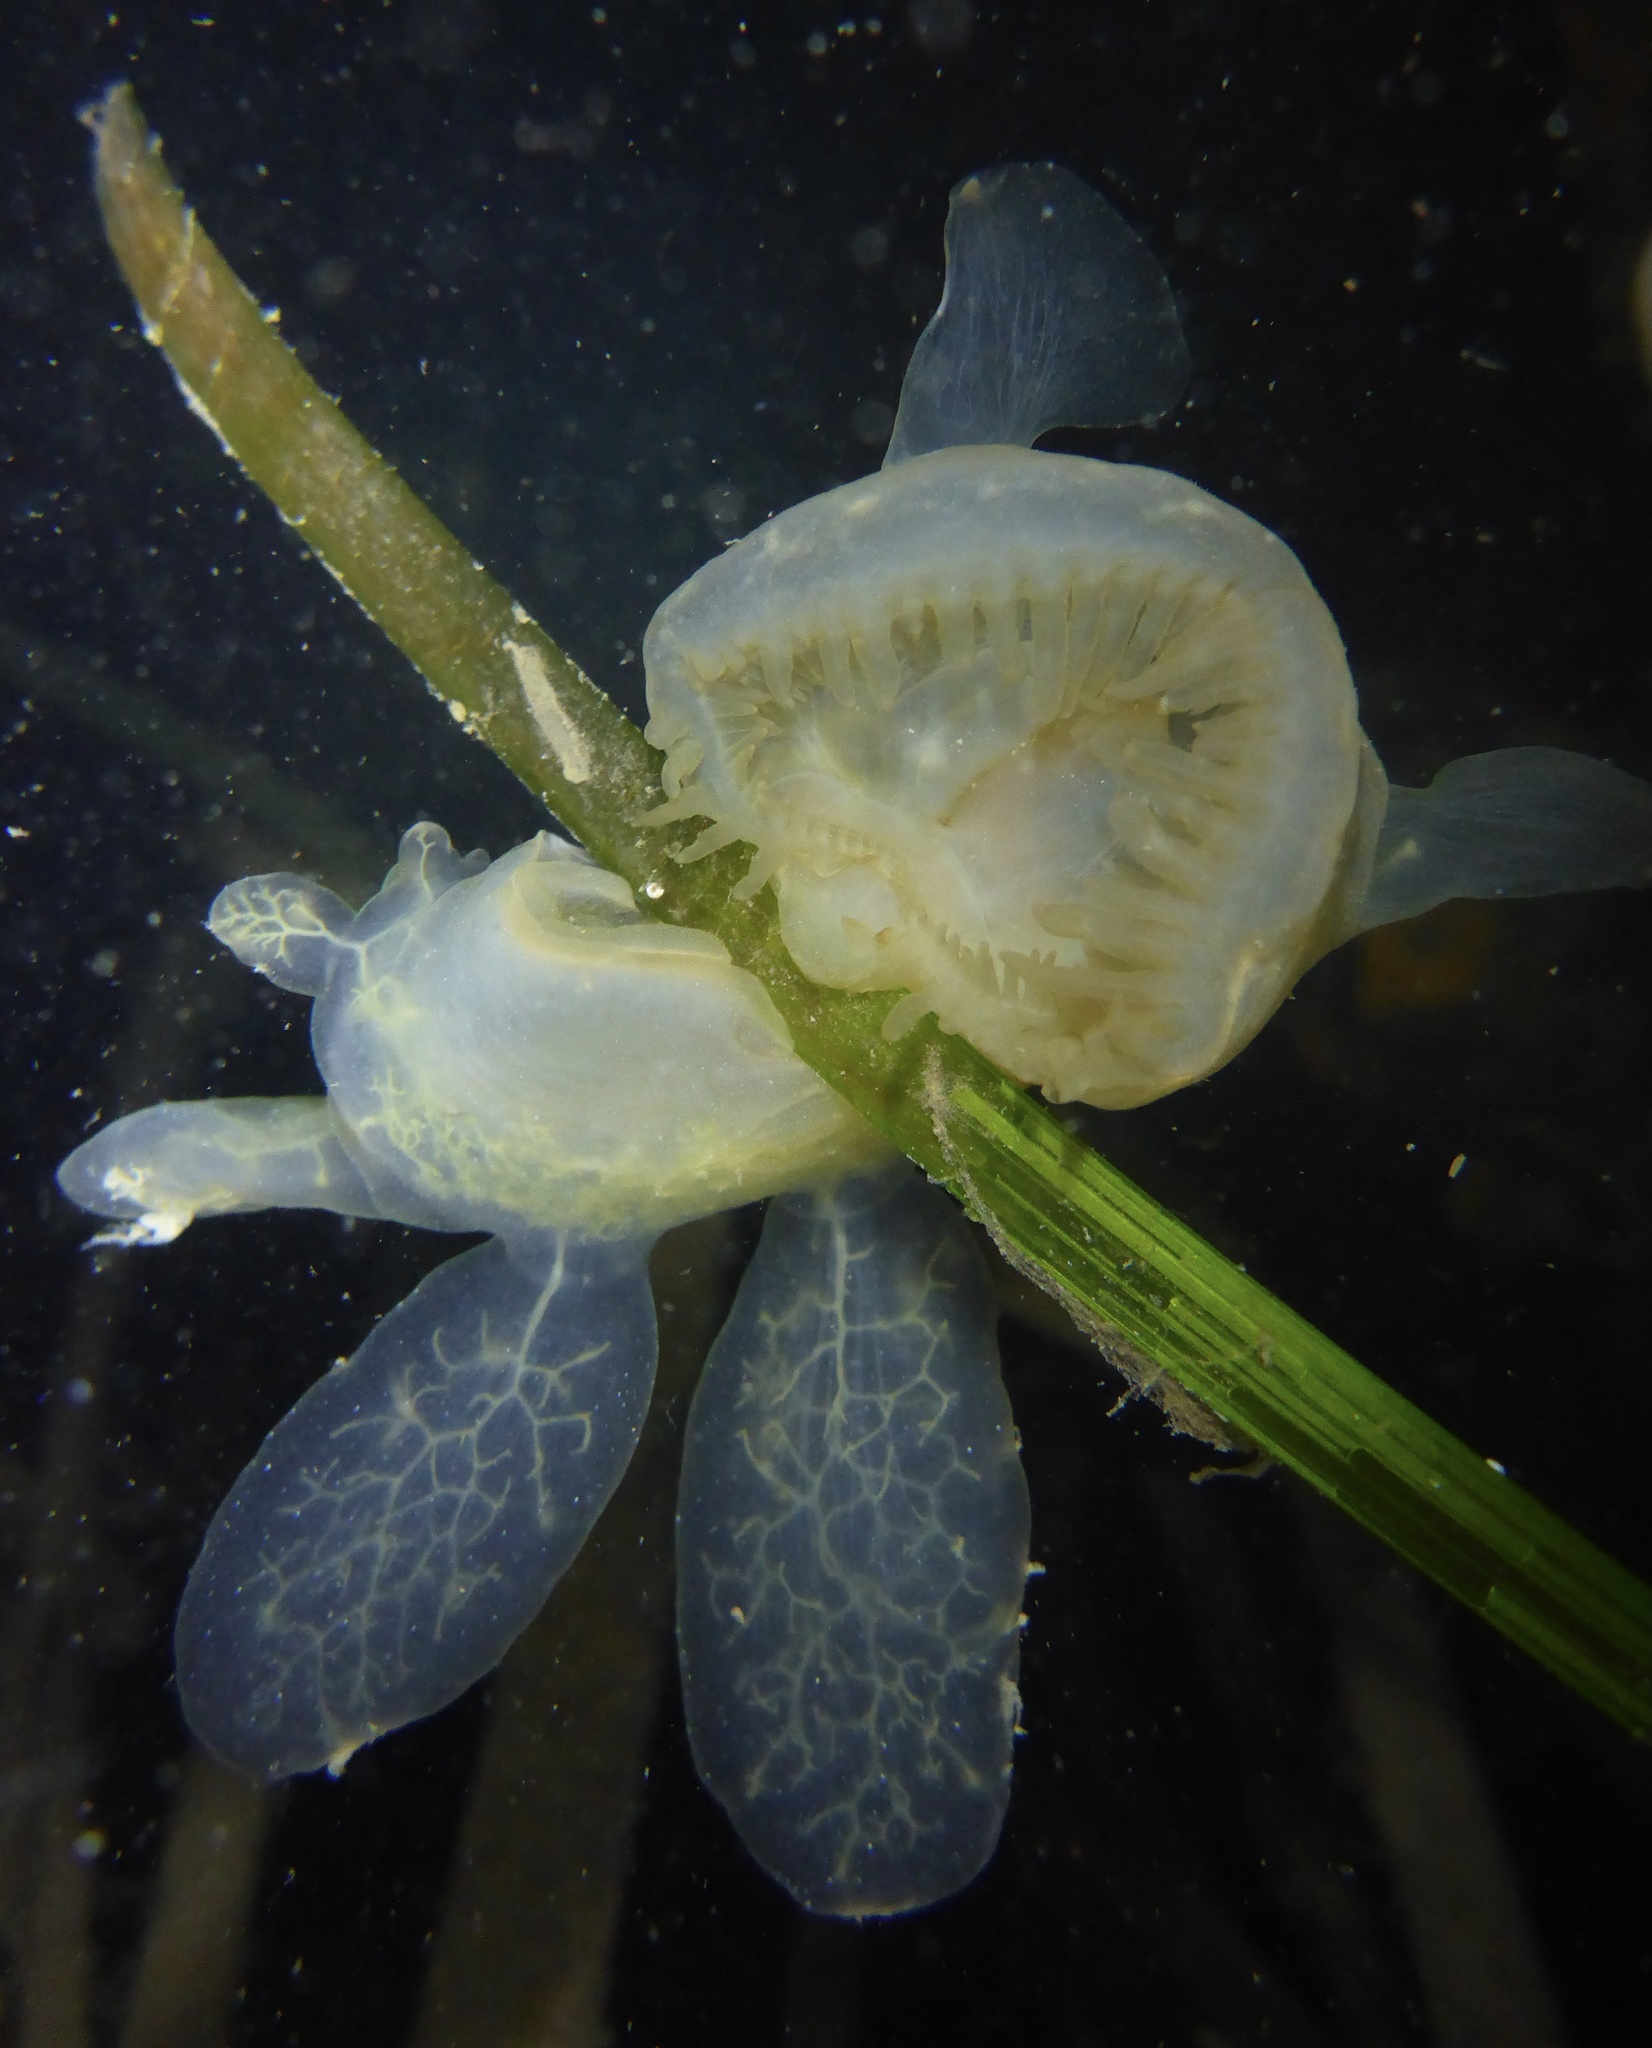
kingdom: Animalia
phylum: Mollusca
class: Gastropoda
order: Nudibranchia
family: Tethydidae
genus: Melibe
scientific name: Melibe leonina
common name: Lion nudibranch
